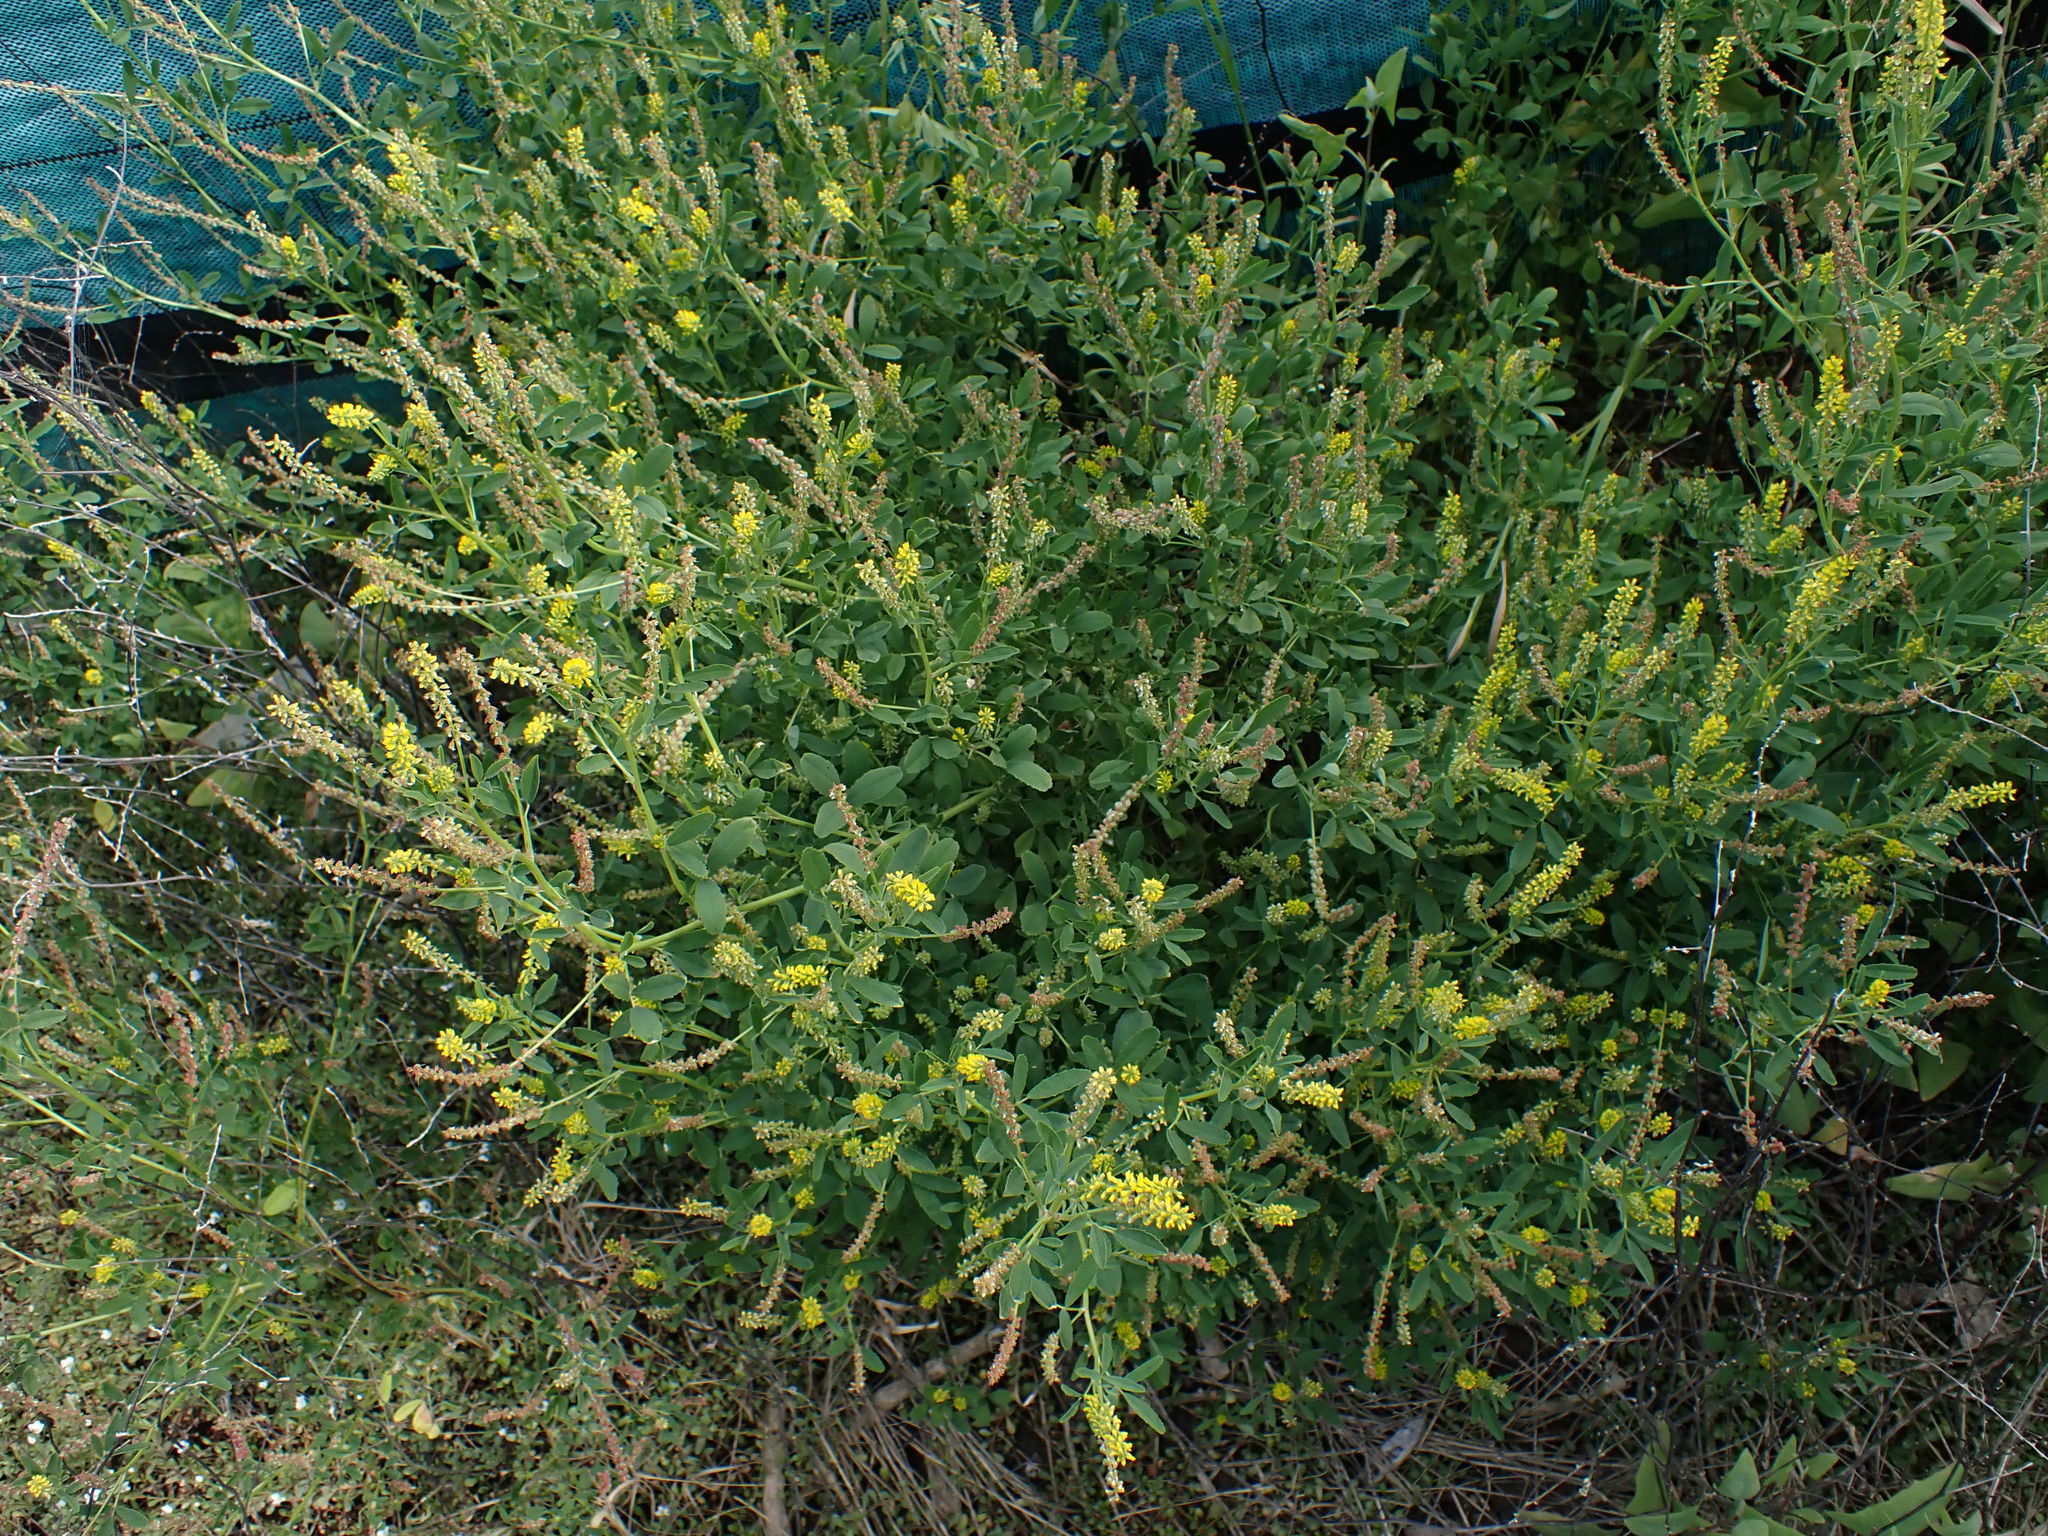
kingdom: Plantae
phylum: Tracheophyta
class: Magnoliopsida
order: Fabales
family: Fabaceae
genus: Melilotus
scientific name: Melilotus indicus
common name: Small melilot
